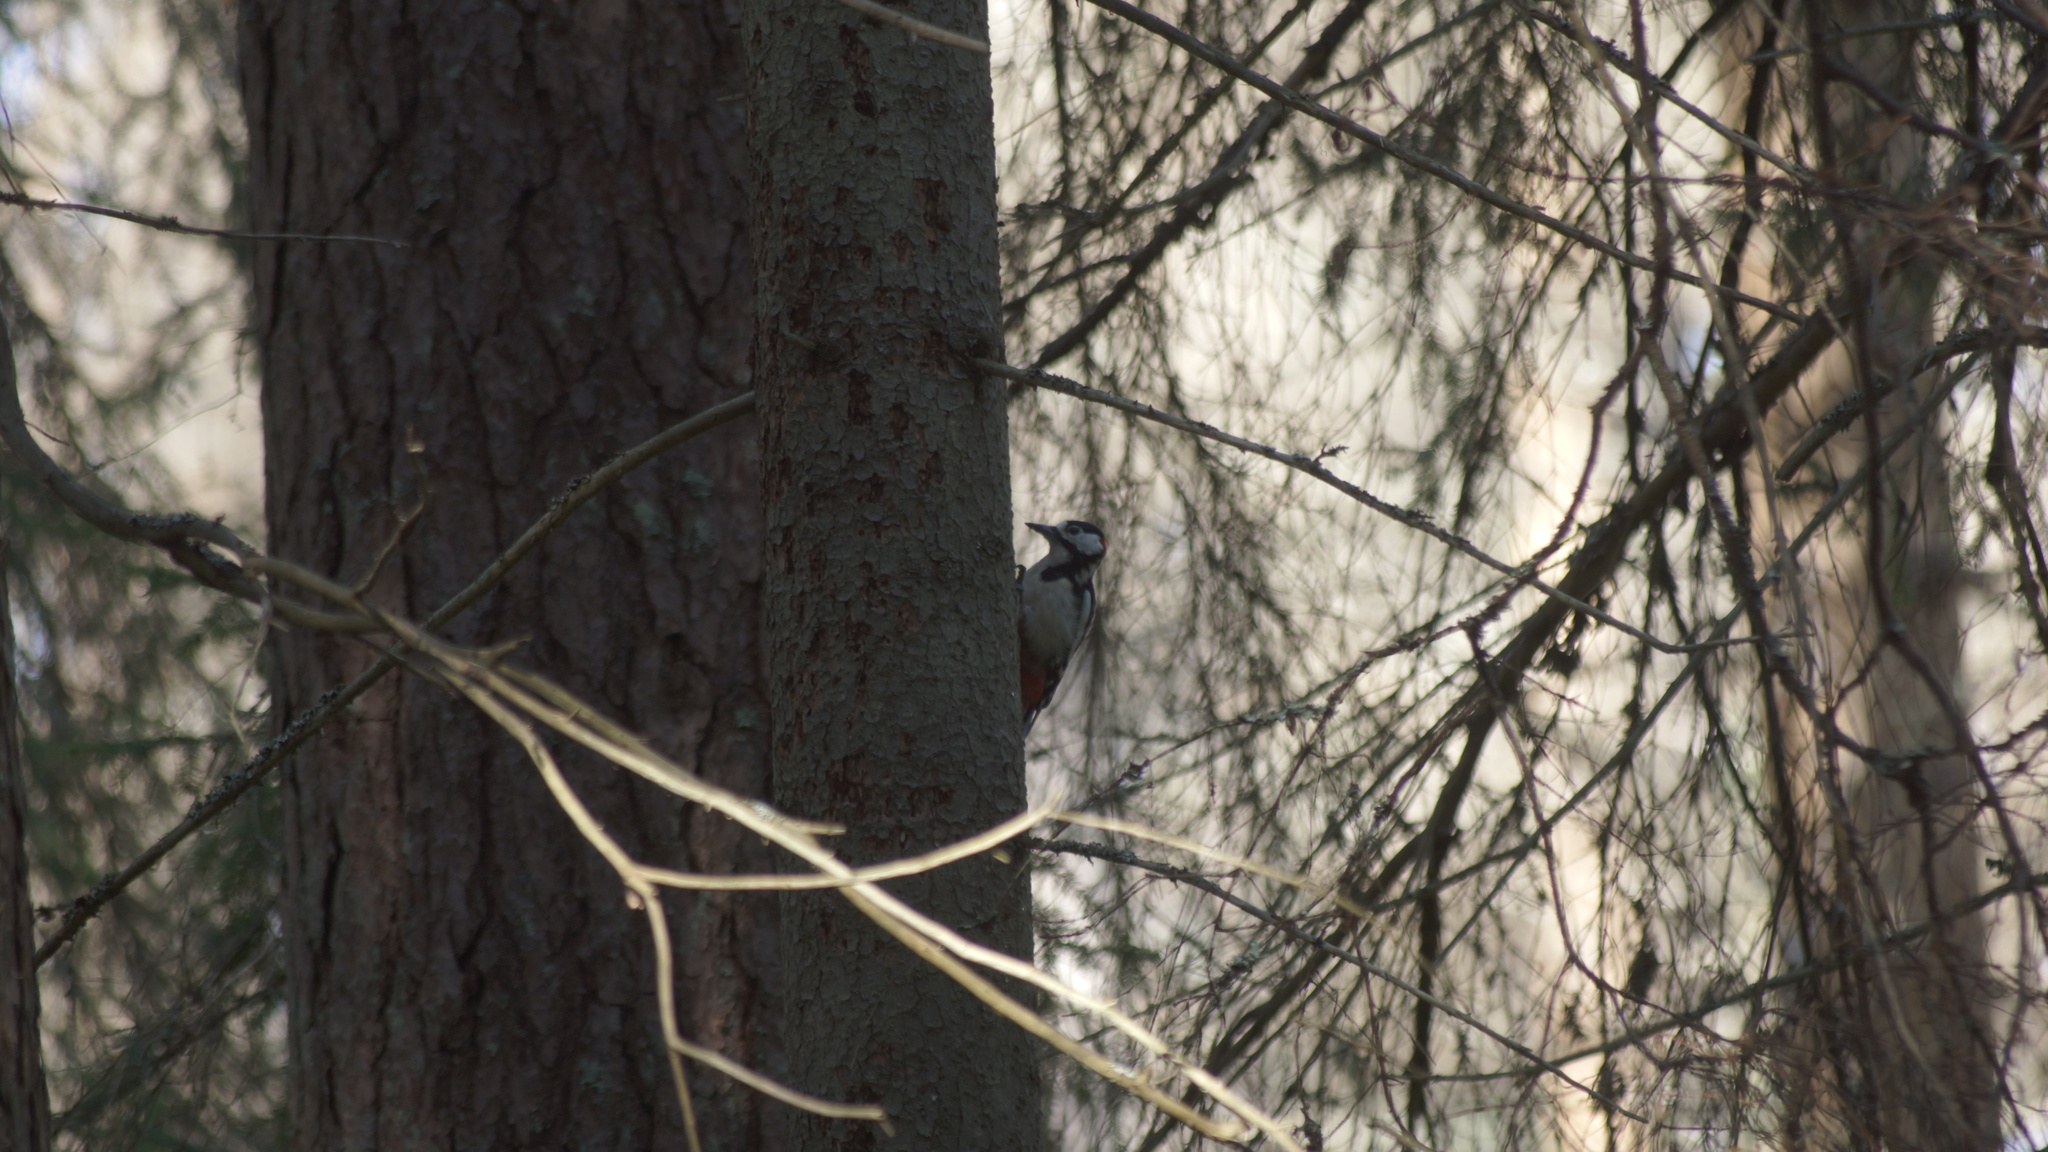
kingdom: Animalia
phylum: Chordata
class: Aves
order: Piciformes
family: Picidae
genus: Dendrocopos
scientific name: Dendrocopos major
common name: Great spotted woodpecker
